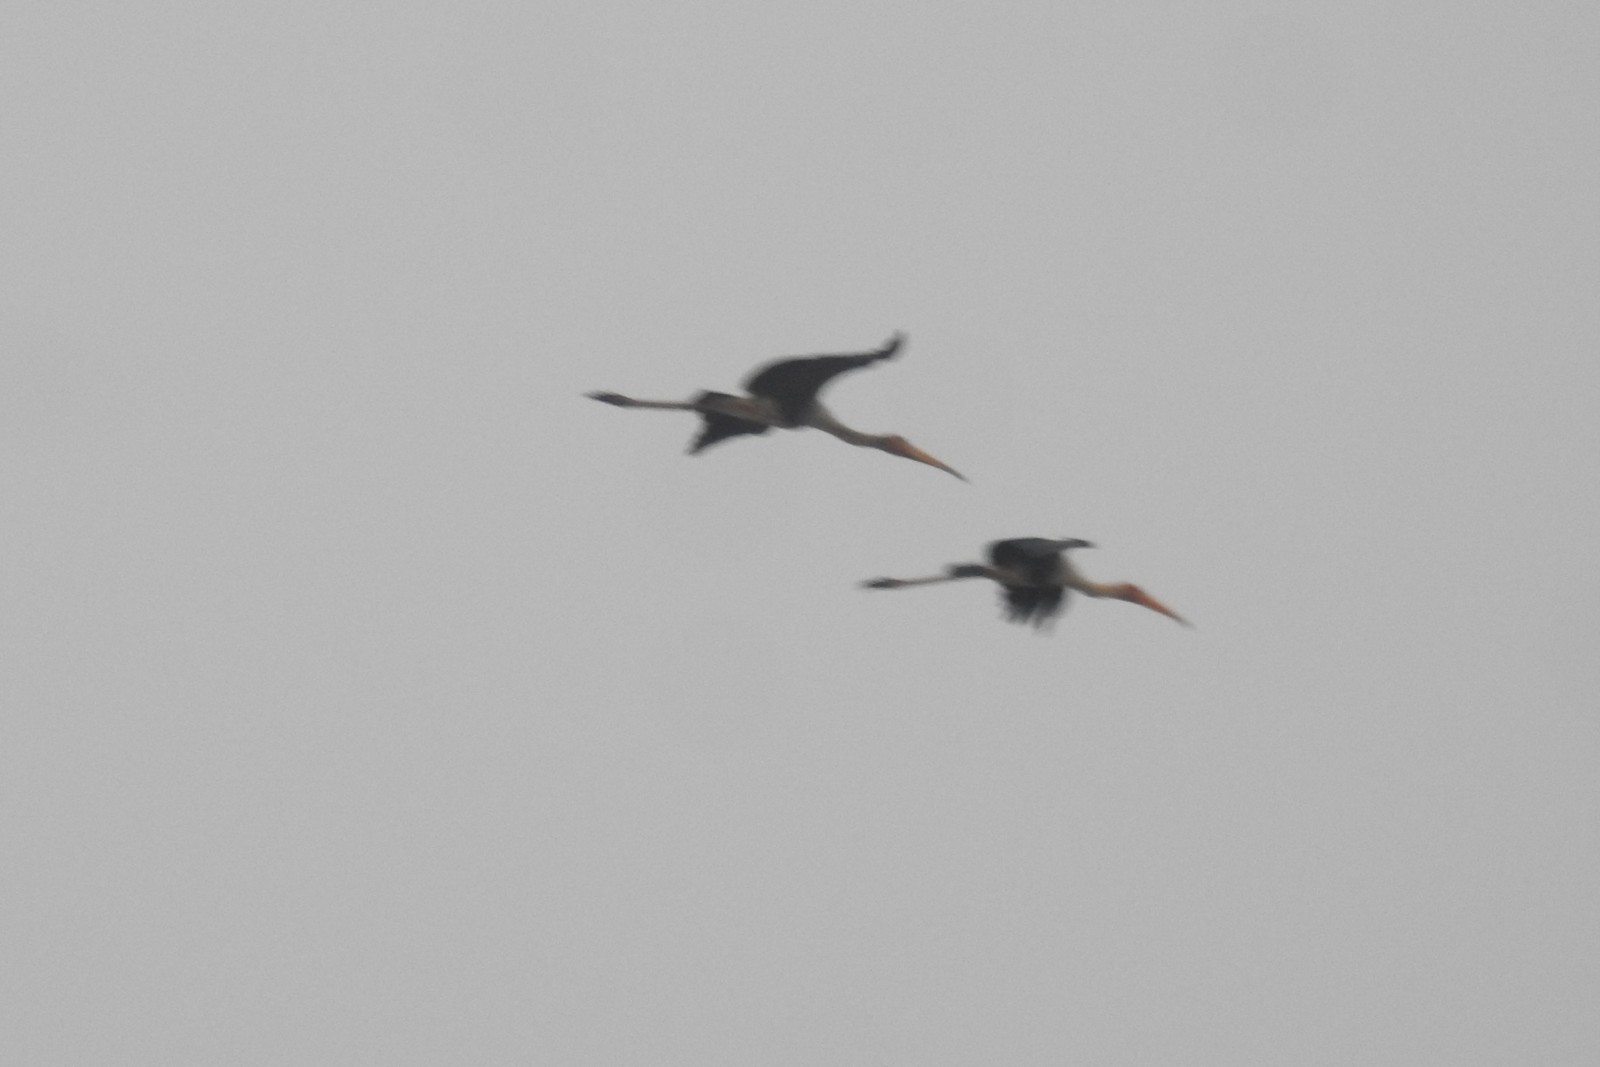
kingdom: Animalia
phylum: Chordata
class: Aves
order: Ciconiiformes
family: Ciconiidae
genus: Mycteria
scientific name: Mycteria leucocephala
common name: Painted stork
